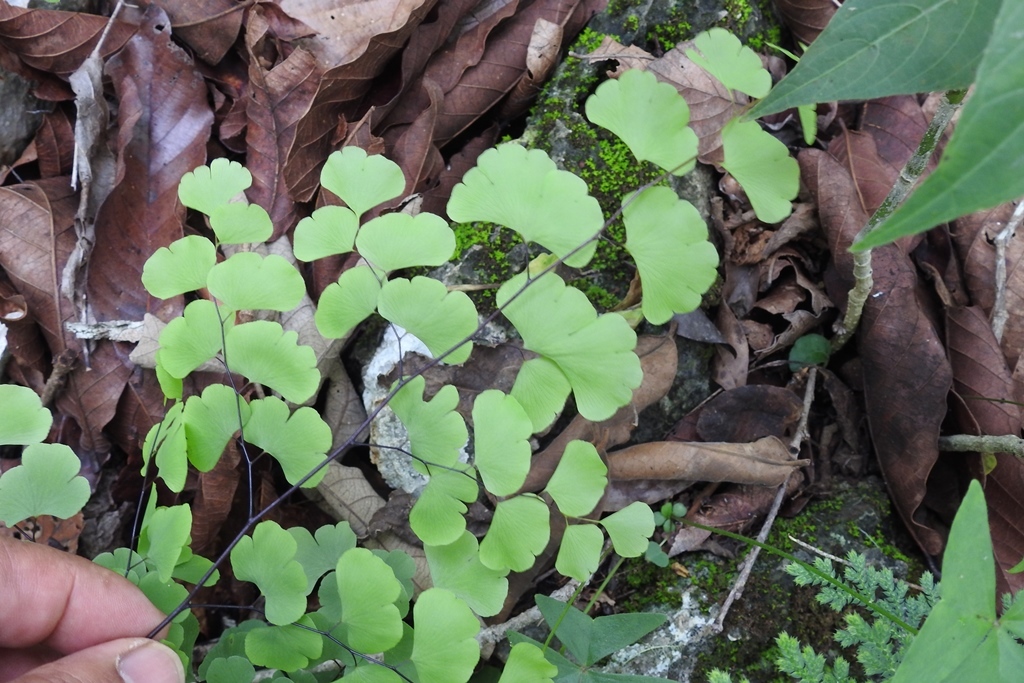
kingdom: Plantae
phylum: Tracheophyta
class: Polypodiopsida
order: Polypodiales
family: Pteridaceae
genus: Adiantum
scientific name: Adiantum braunii
